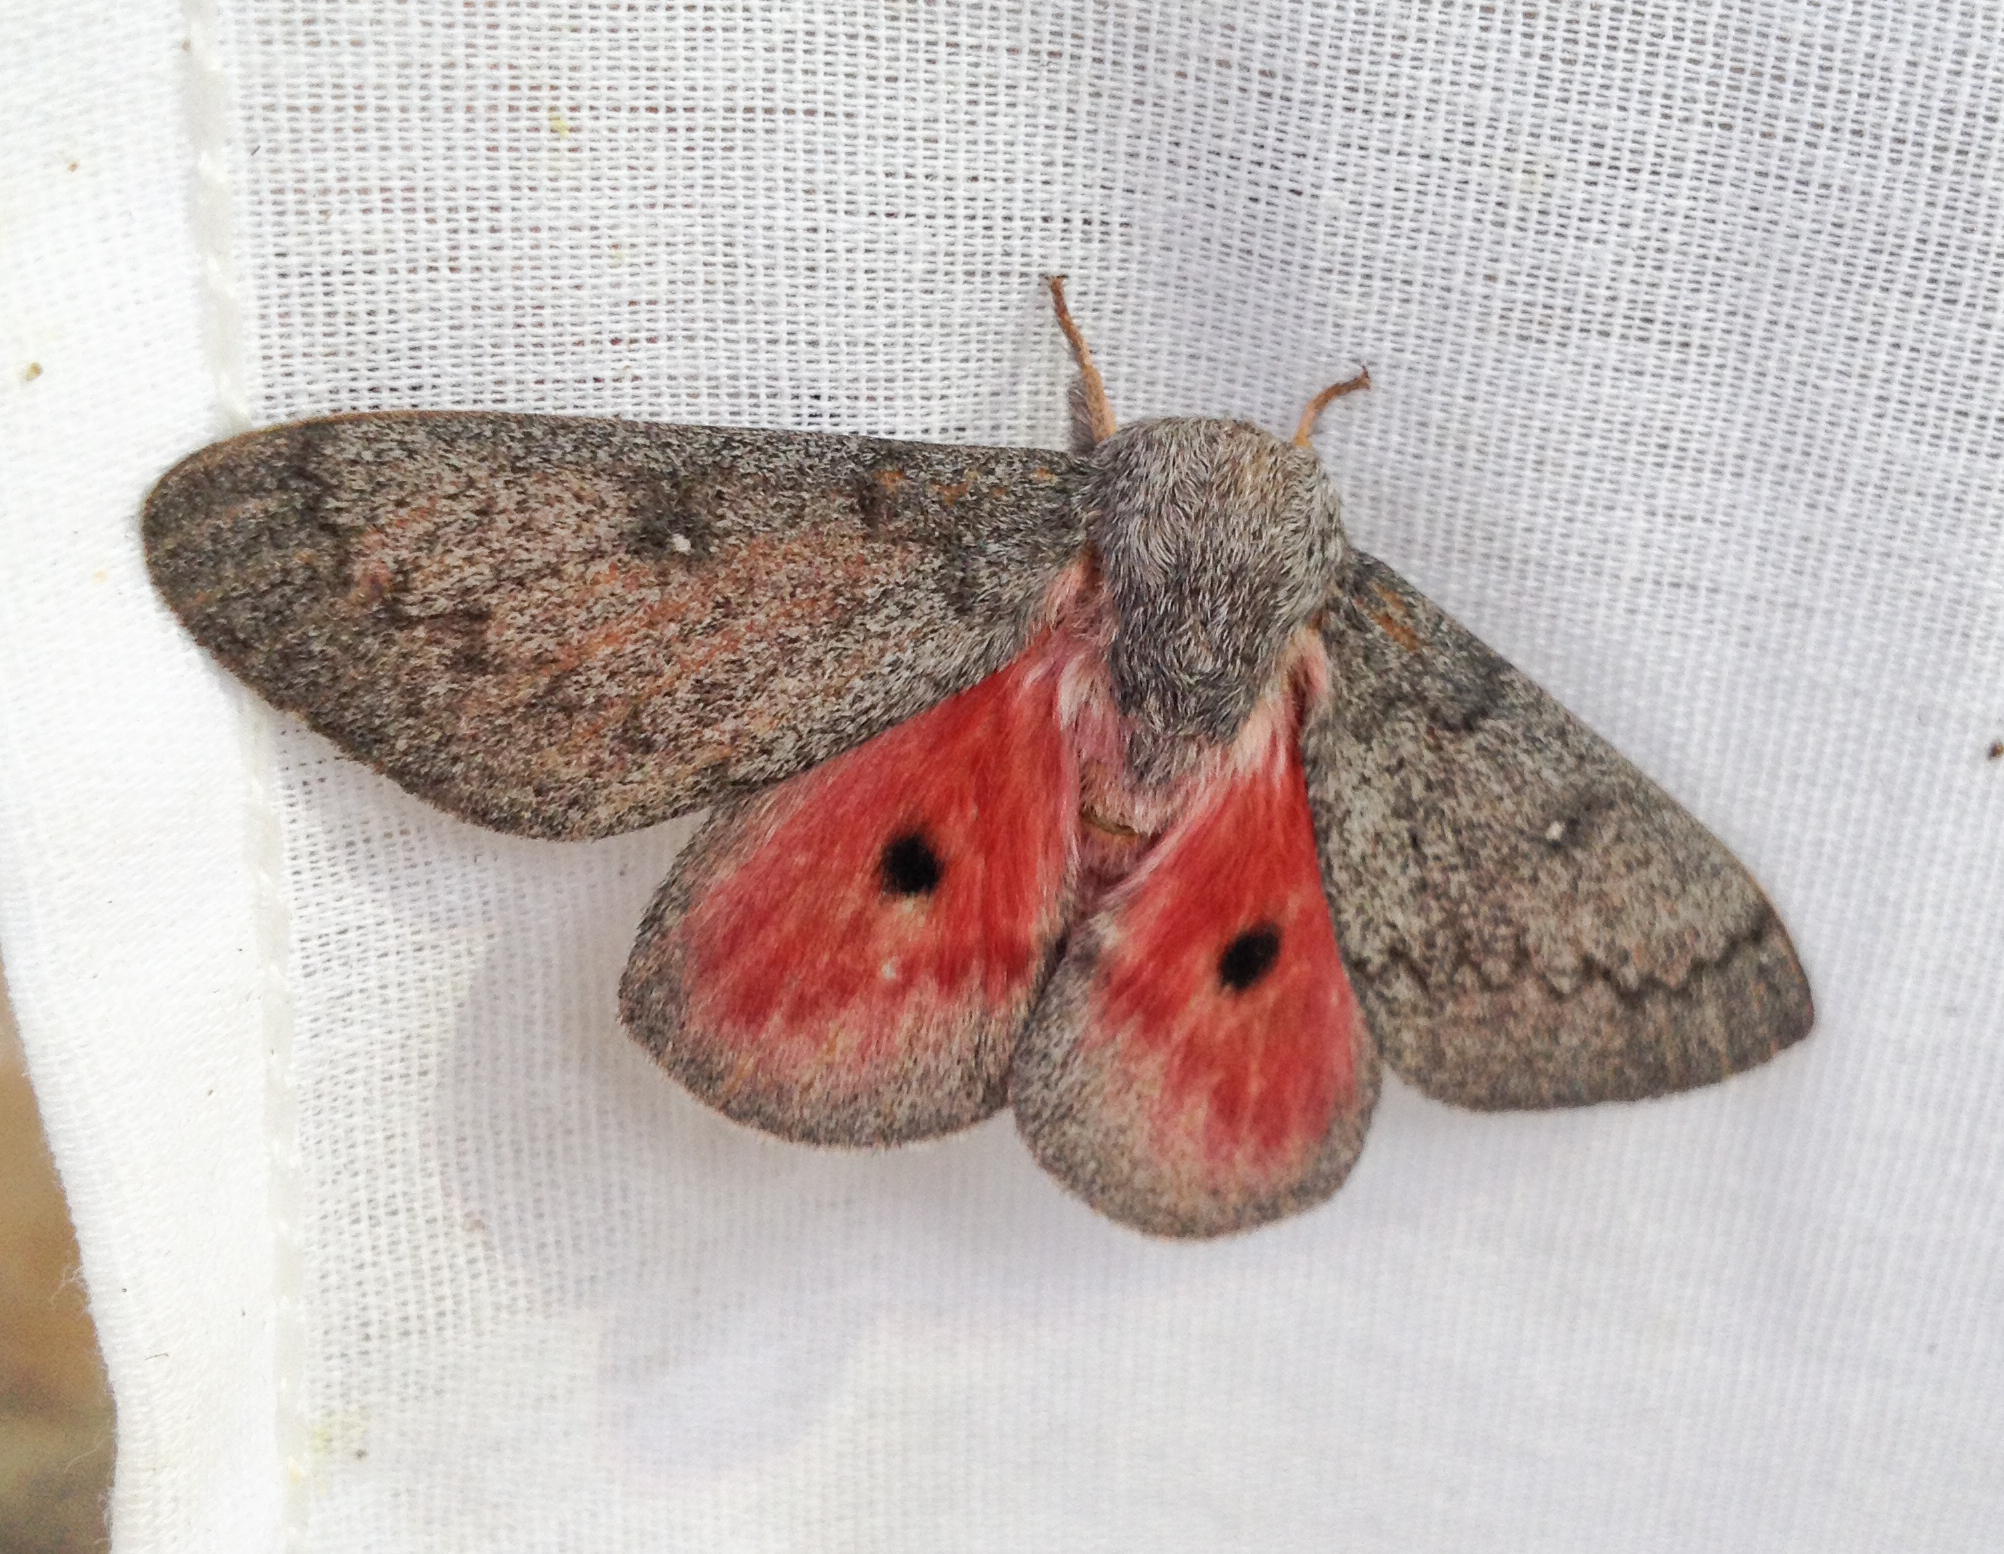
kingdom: Animalia
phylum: Arthropoda
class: Insecta
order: Lepidoptera
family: Saturniidae
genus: Syssphinx
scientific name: Syssphinx hubbardi
